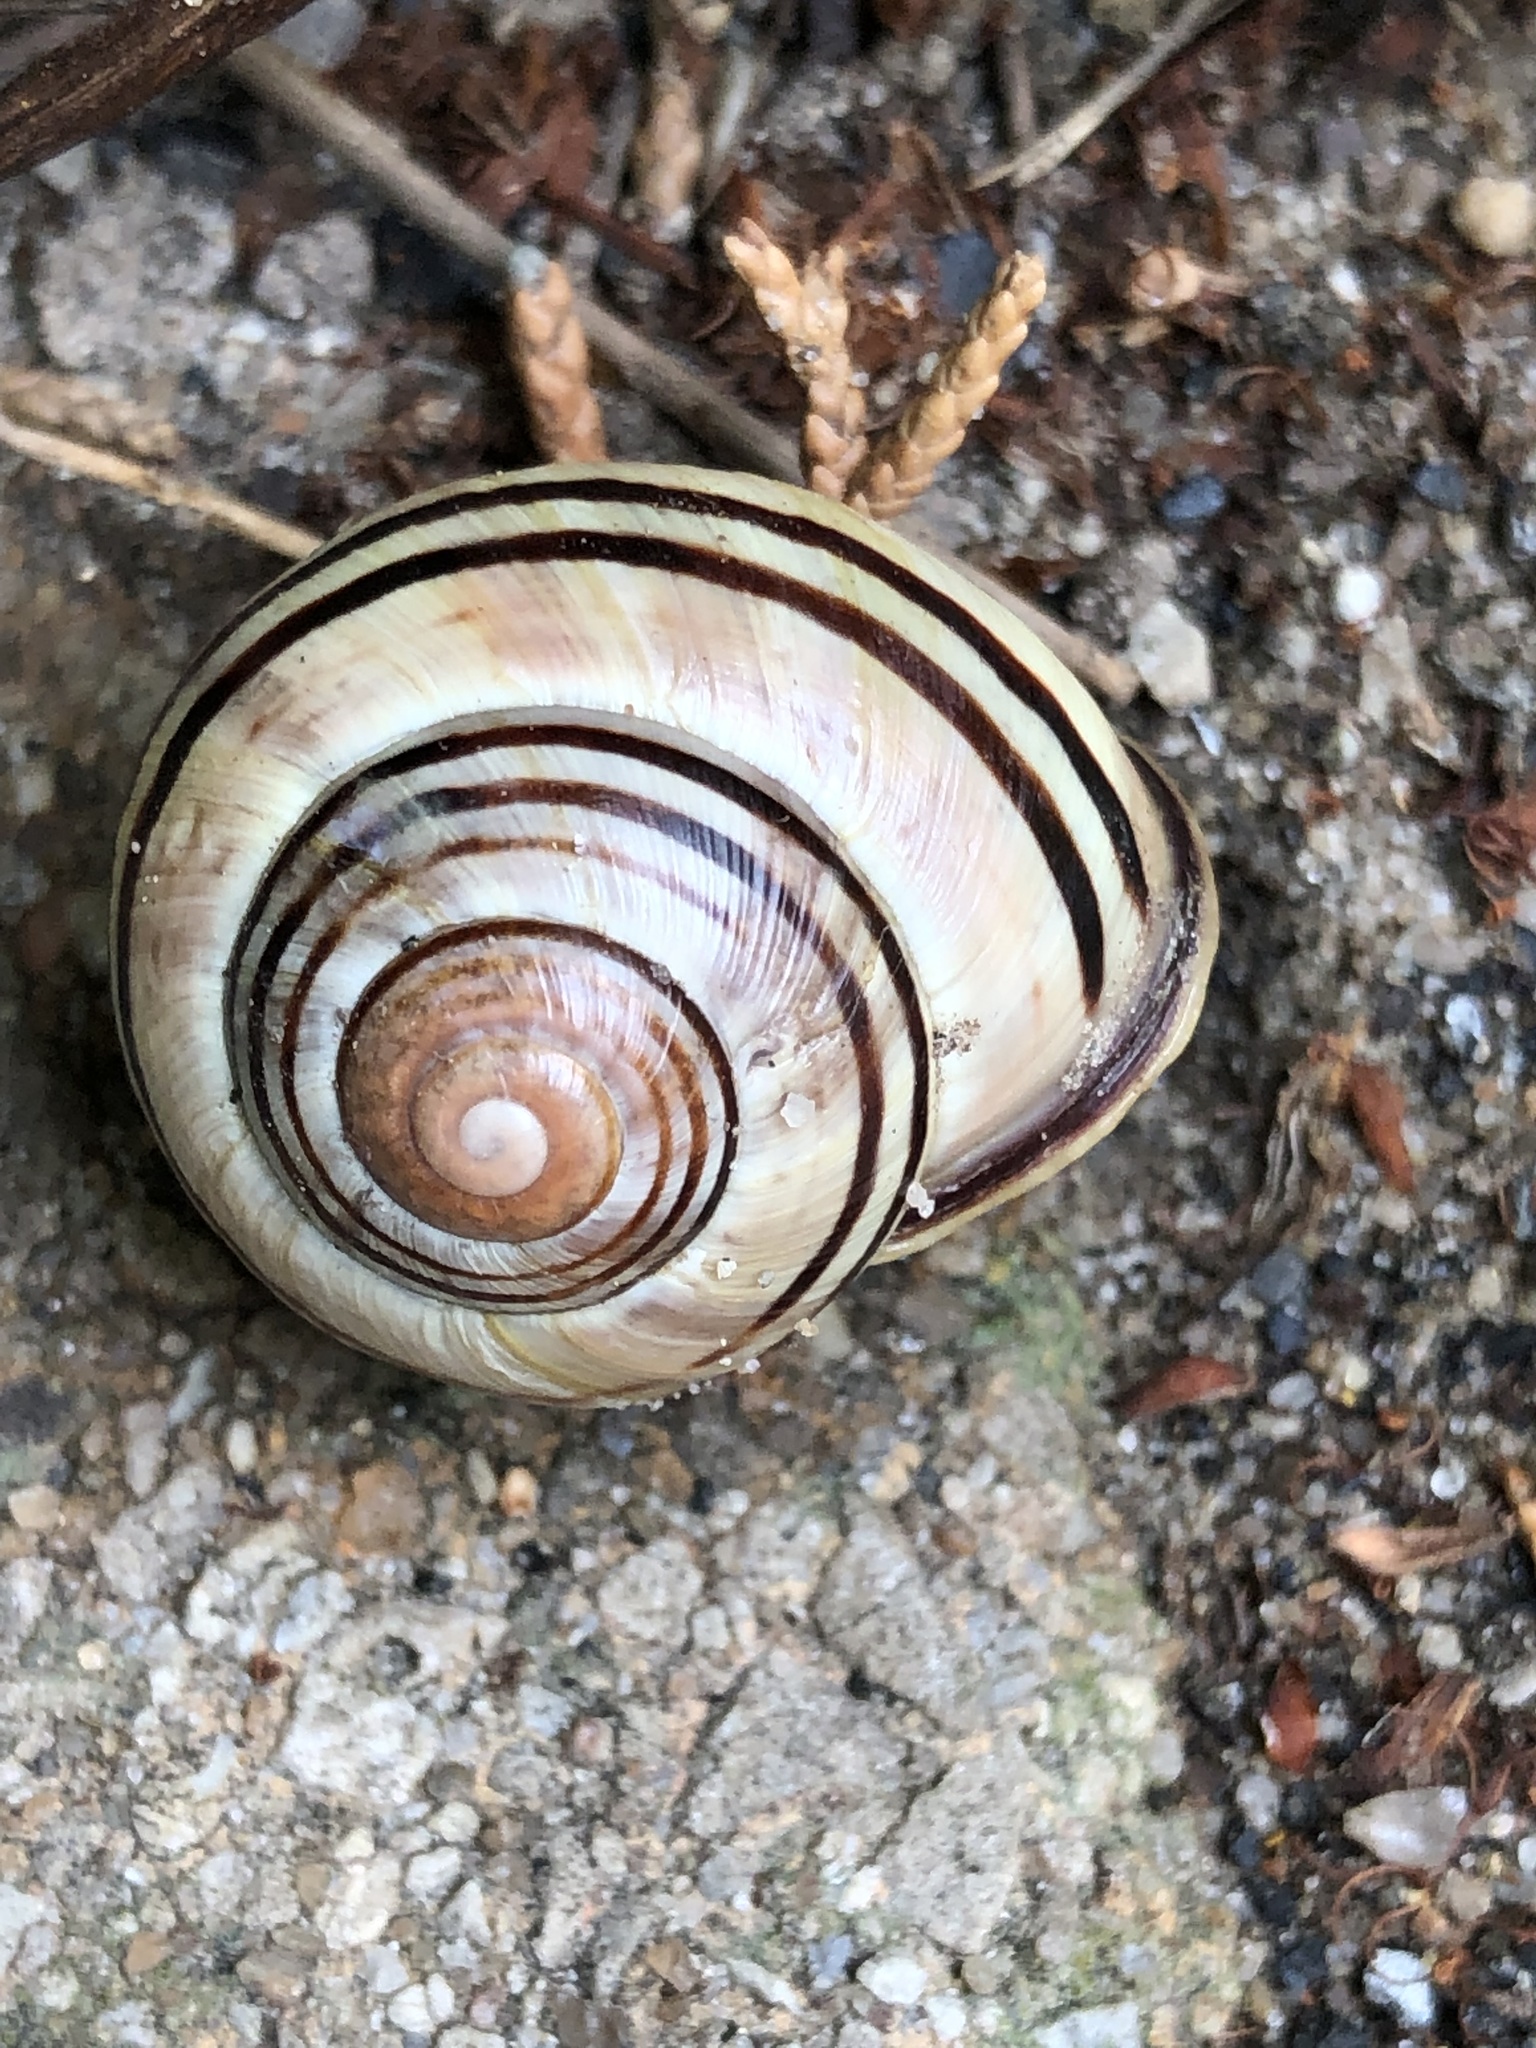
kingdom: Animalia
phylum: Mollusca
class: Gastropoda
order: Stylommatophora
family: Helicidae
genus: Cepaea
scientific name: Cepaea nemoralis
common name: Grovesnail
